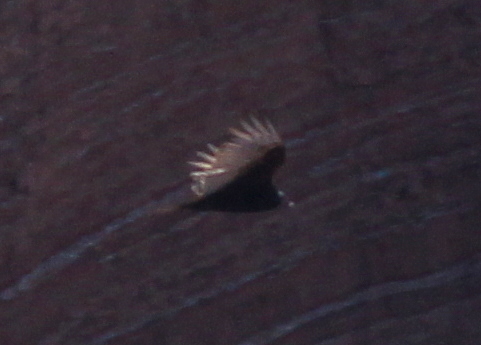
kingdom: Animalia
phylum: Chordata
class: Aves
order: Accipitriformes
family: Cathartidae
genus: Cathartes
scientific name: Cathartes aura
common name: Turkey vulture
